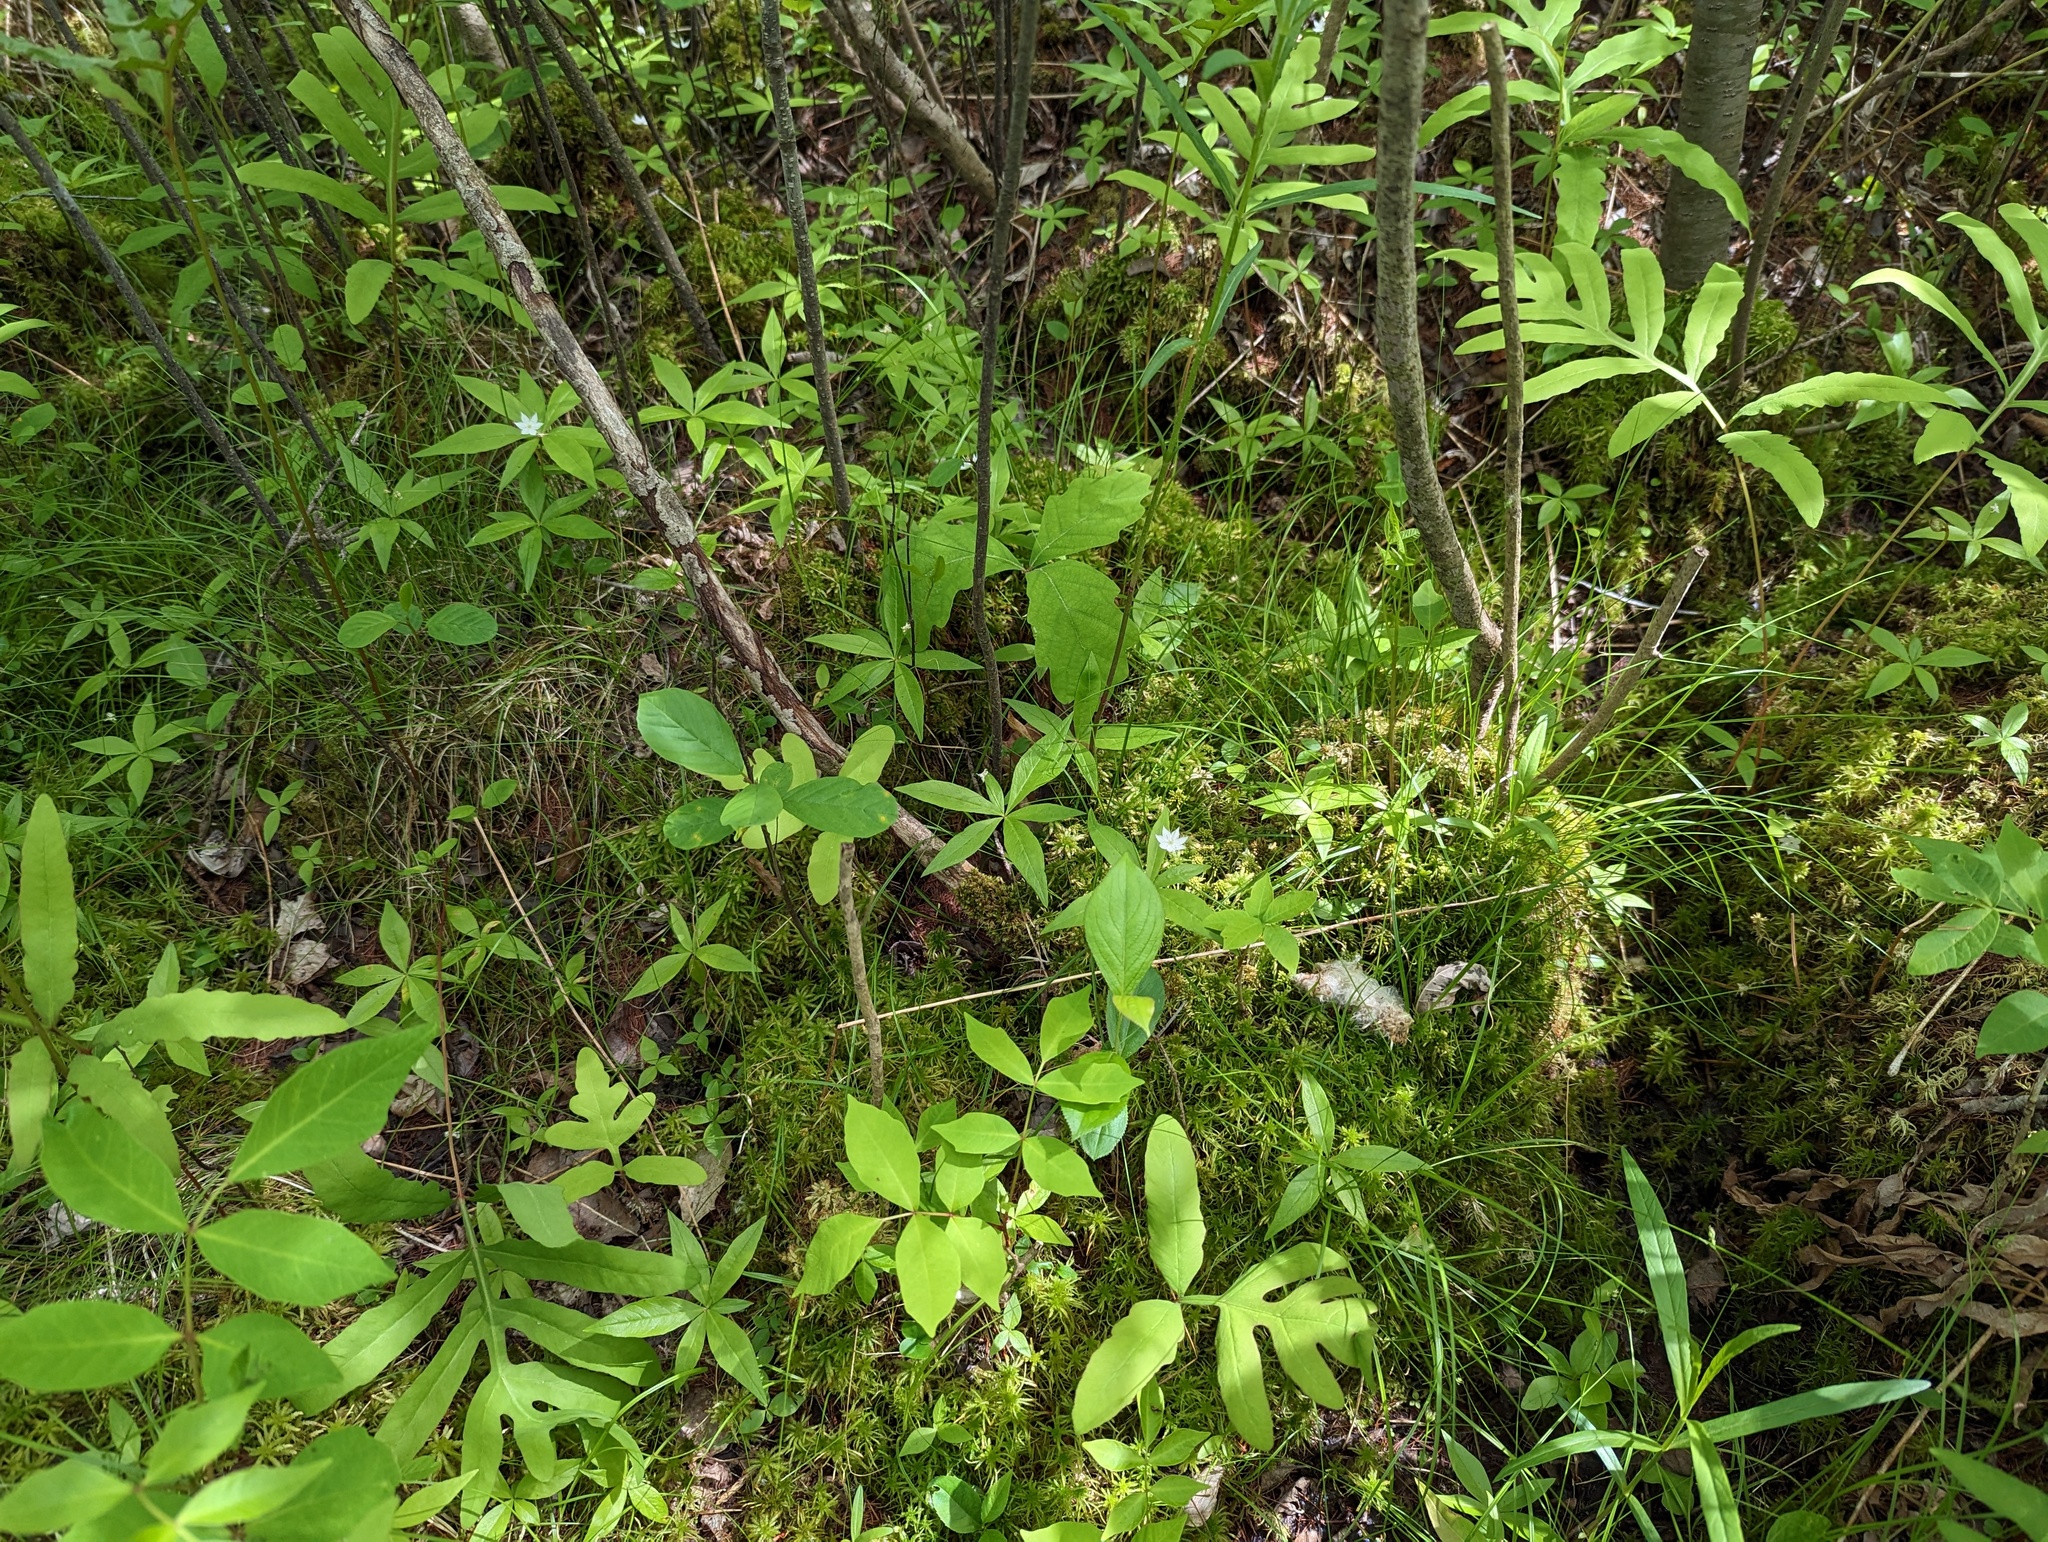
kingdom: Plantae
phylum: Tracheophyta
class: Magnoliopsida
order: Ericales
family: Primulaceae
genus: Lysimachia
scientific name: Lysimachia borealis
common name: American starflower
